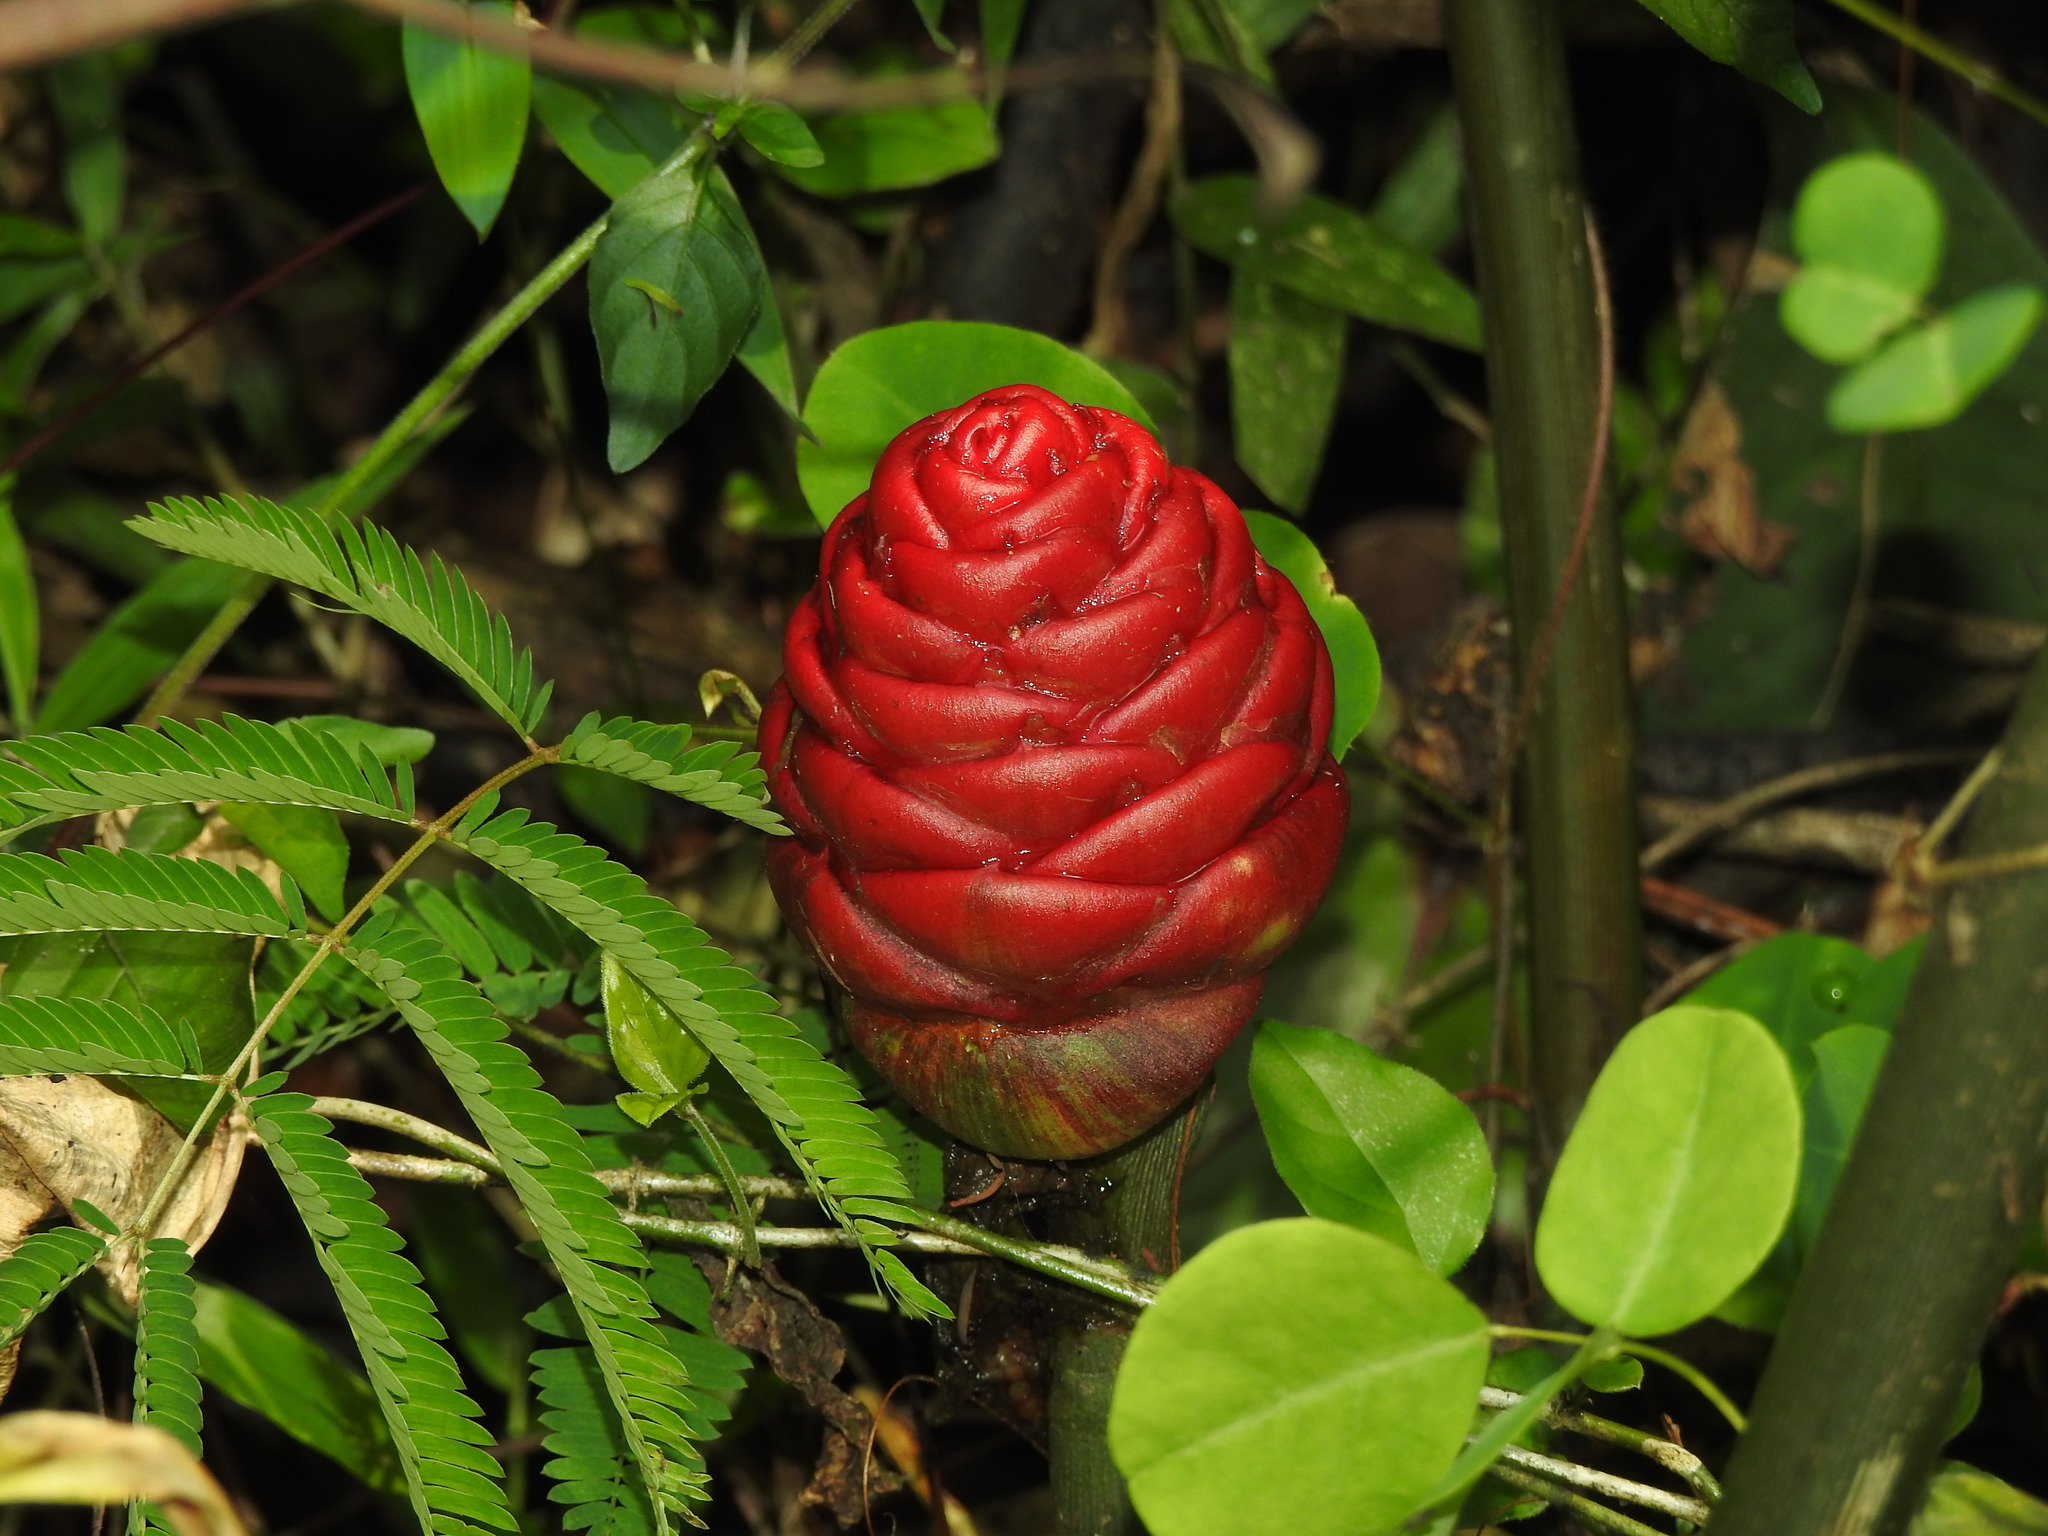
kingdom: Plantae
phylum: Tracheophyta
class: Liliopsida
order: Zingiberales
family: Zingiberaceae
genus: Zingiber
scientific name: Zingiber zerumbet
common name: Bitter ginger
